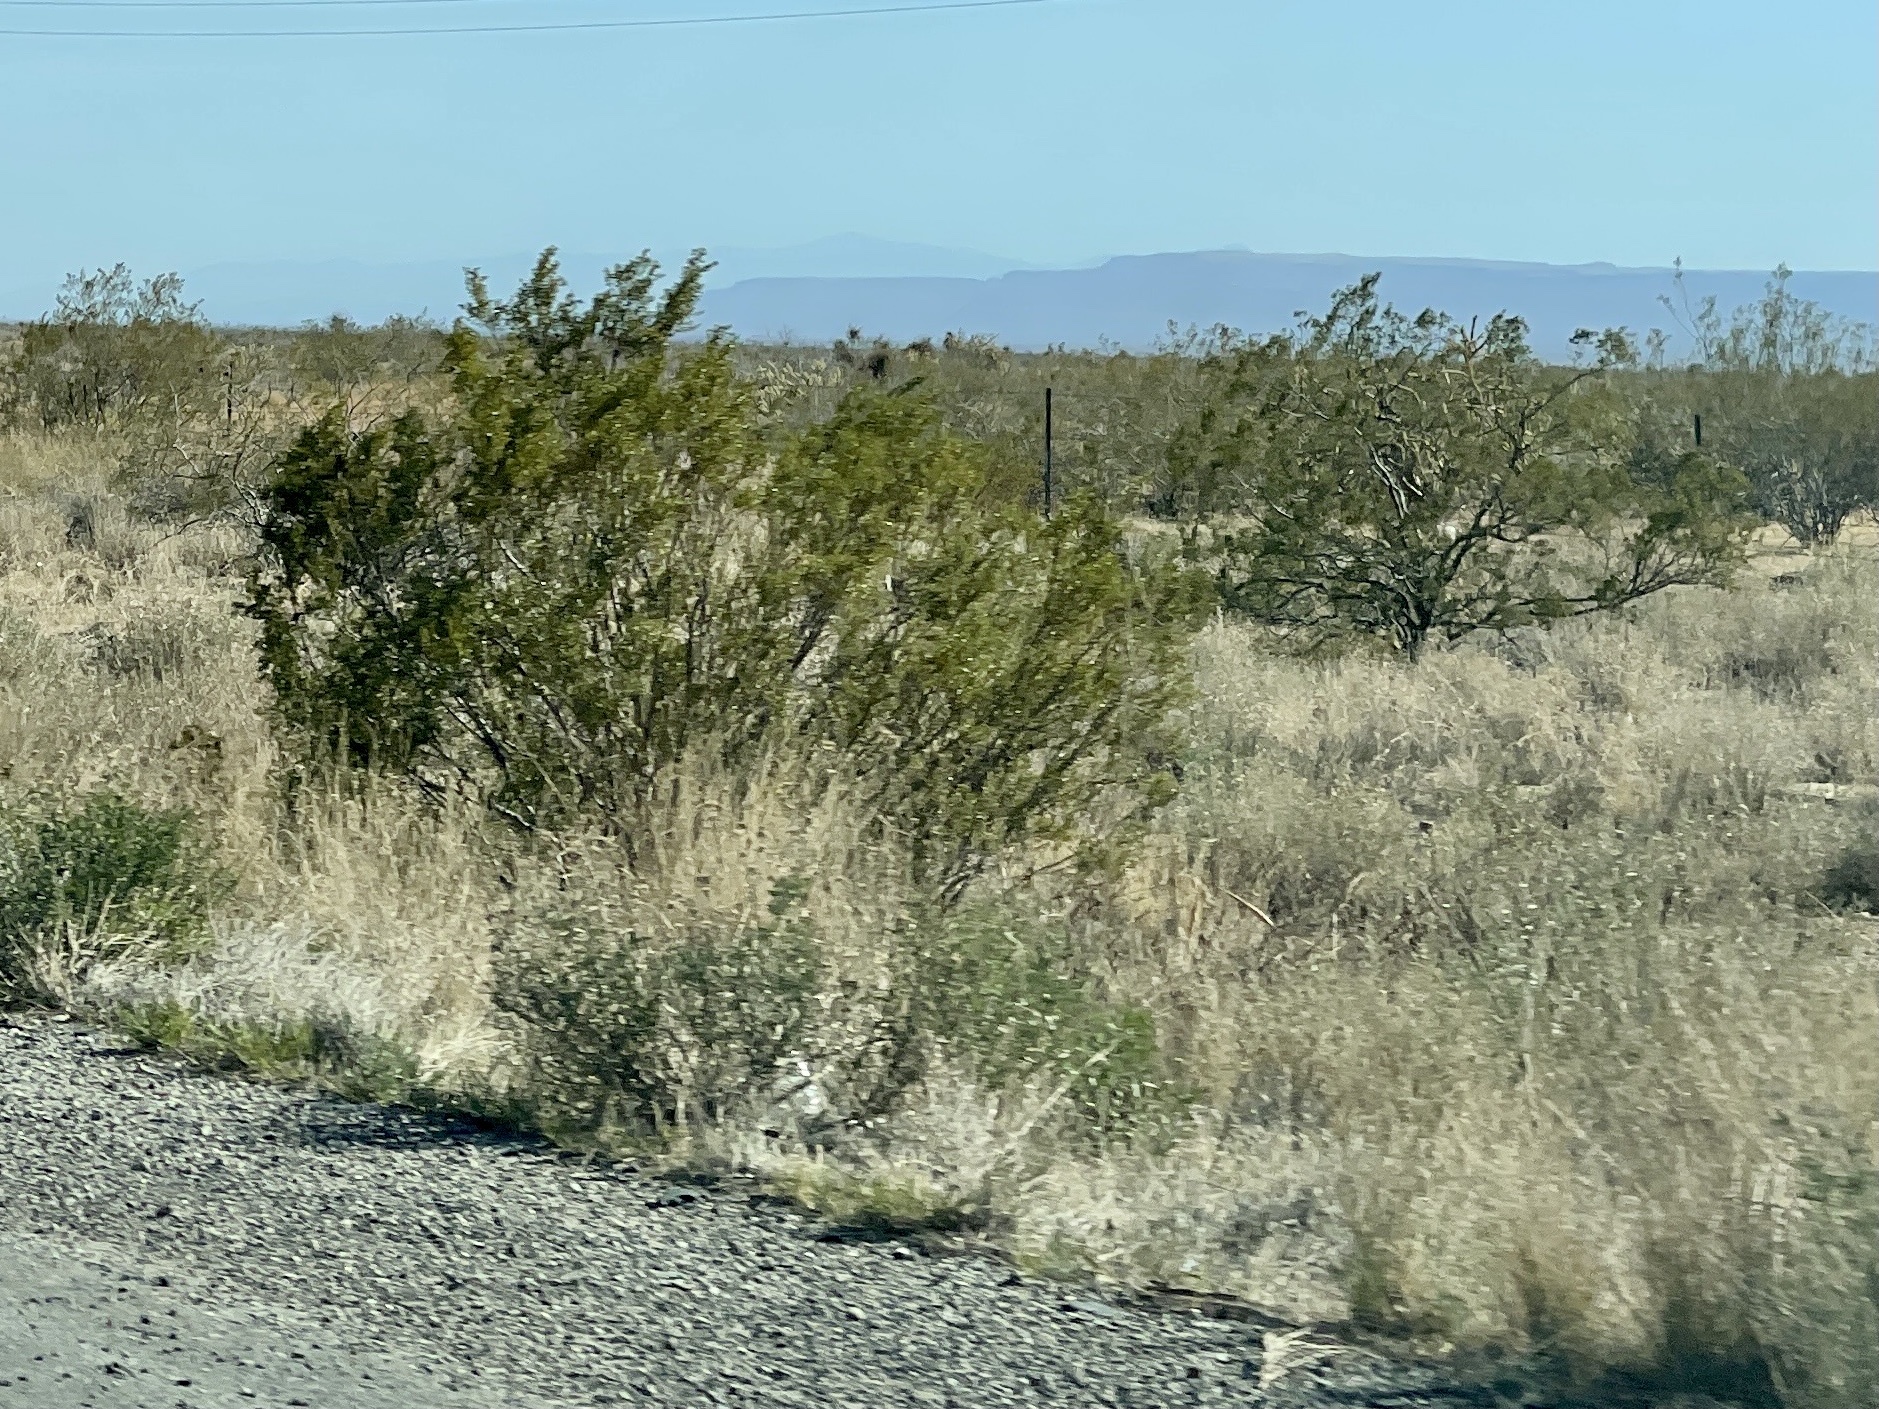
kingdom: Plantae
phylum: Tracheophyta
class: Magnoliopsida
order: Zygophyllales
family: Zygophyllaceae
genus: Larrea
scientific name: Larrea tridentata
